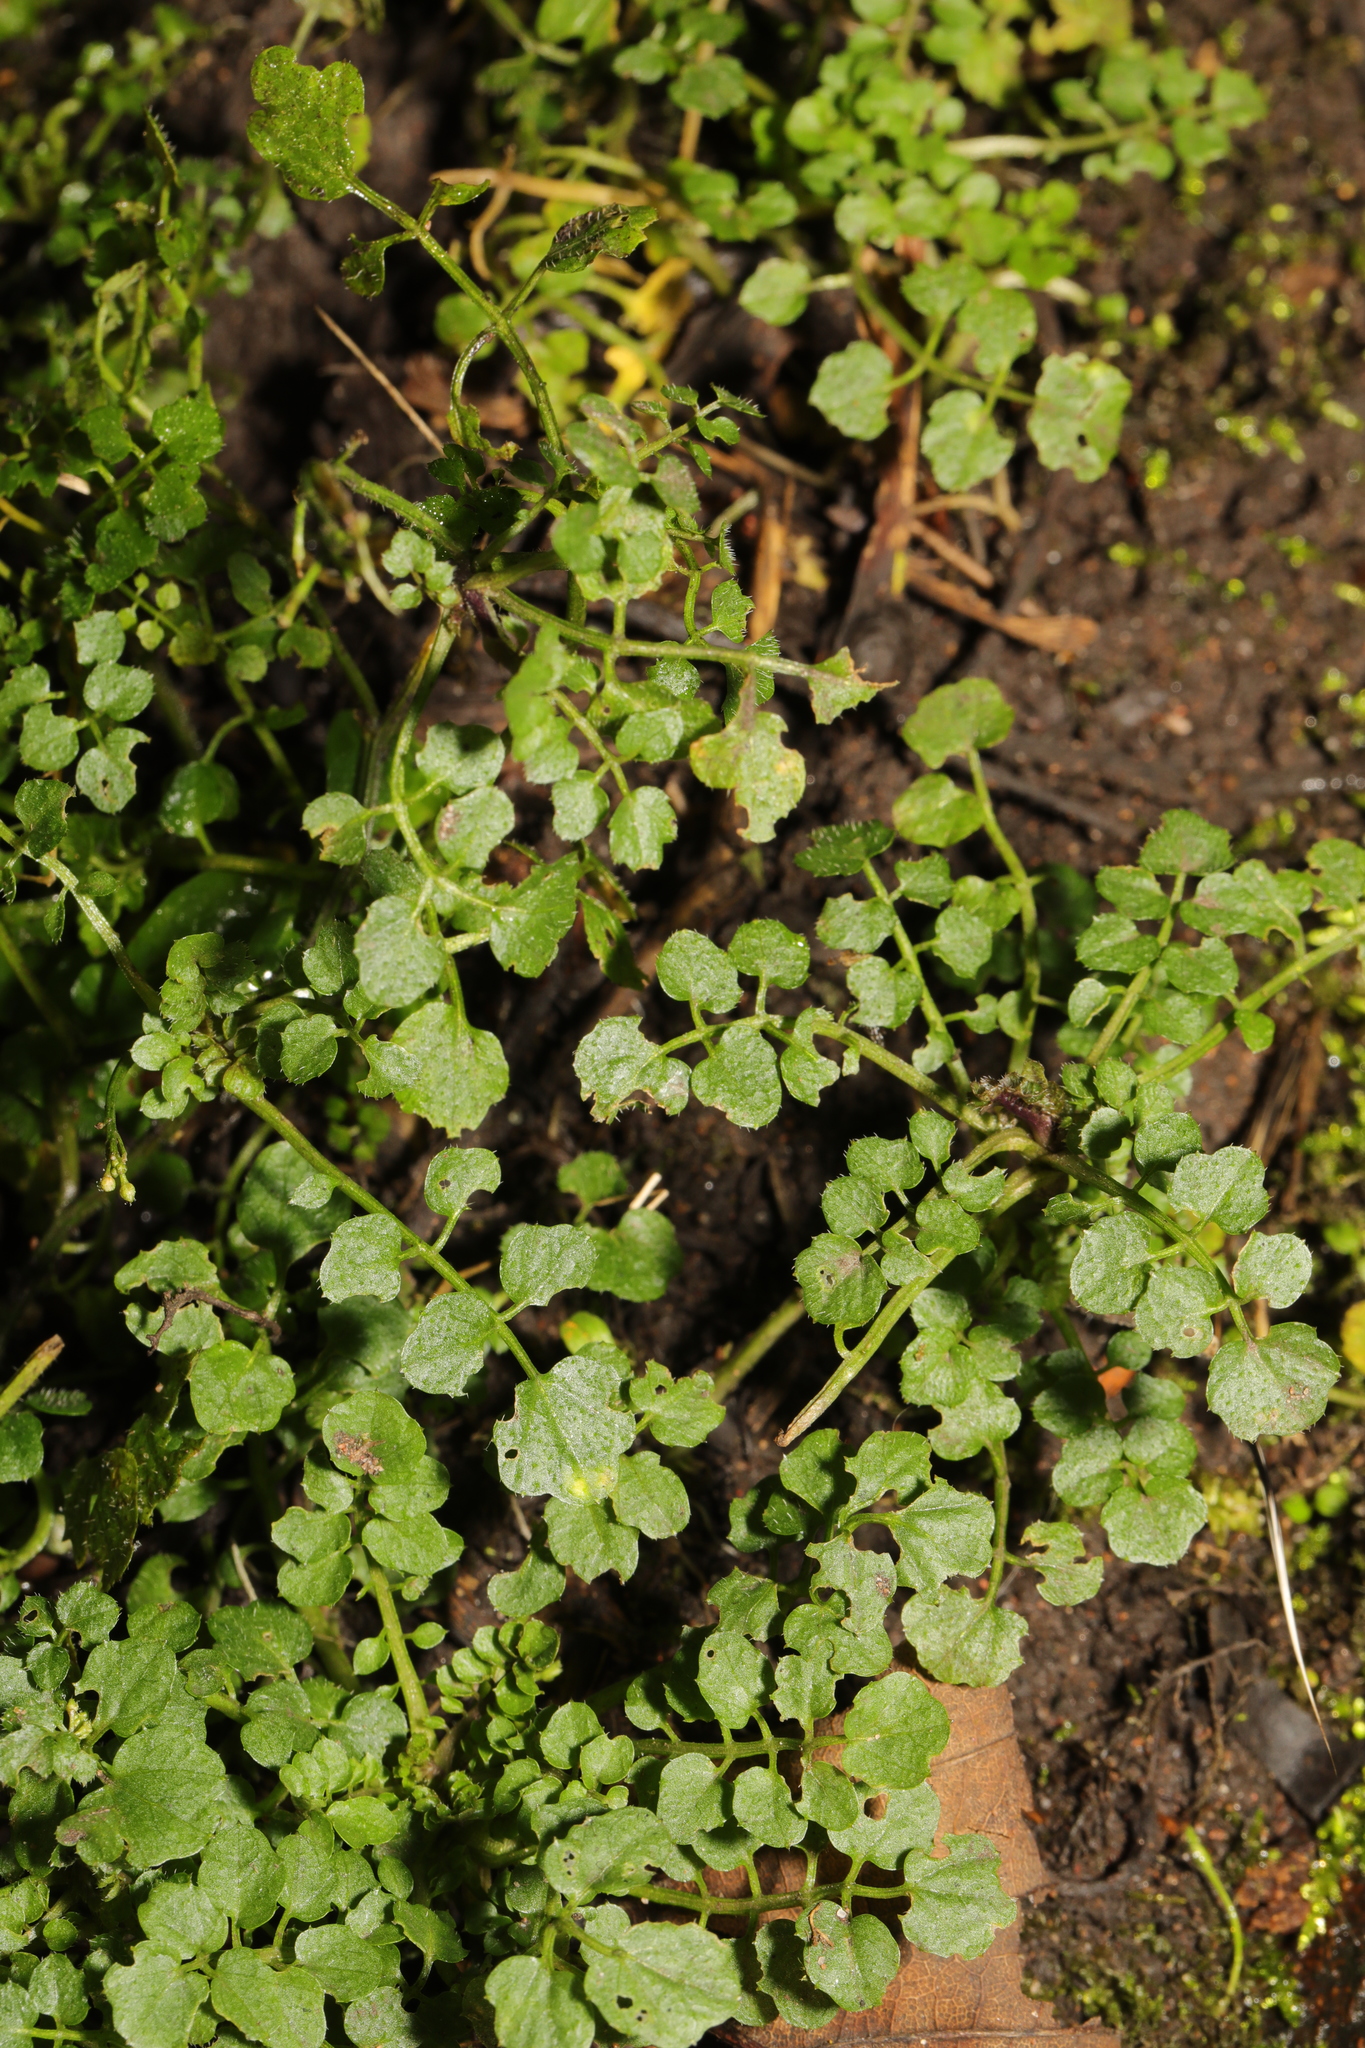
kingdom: Plantae
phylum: Tracheophyta
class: Magnoliopsida
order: Brassicales
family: Brassicaceae
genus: Cardamine
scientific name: Cardamine flexuosa
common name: Woodland bittercress
